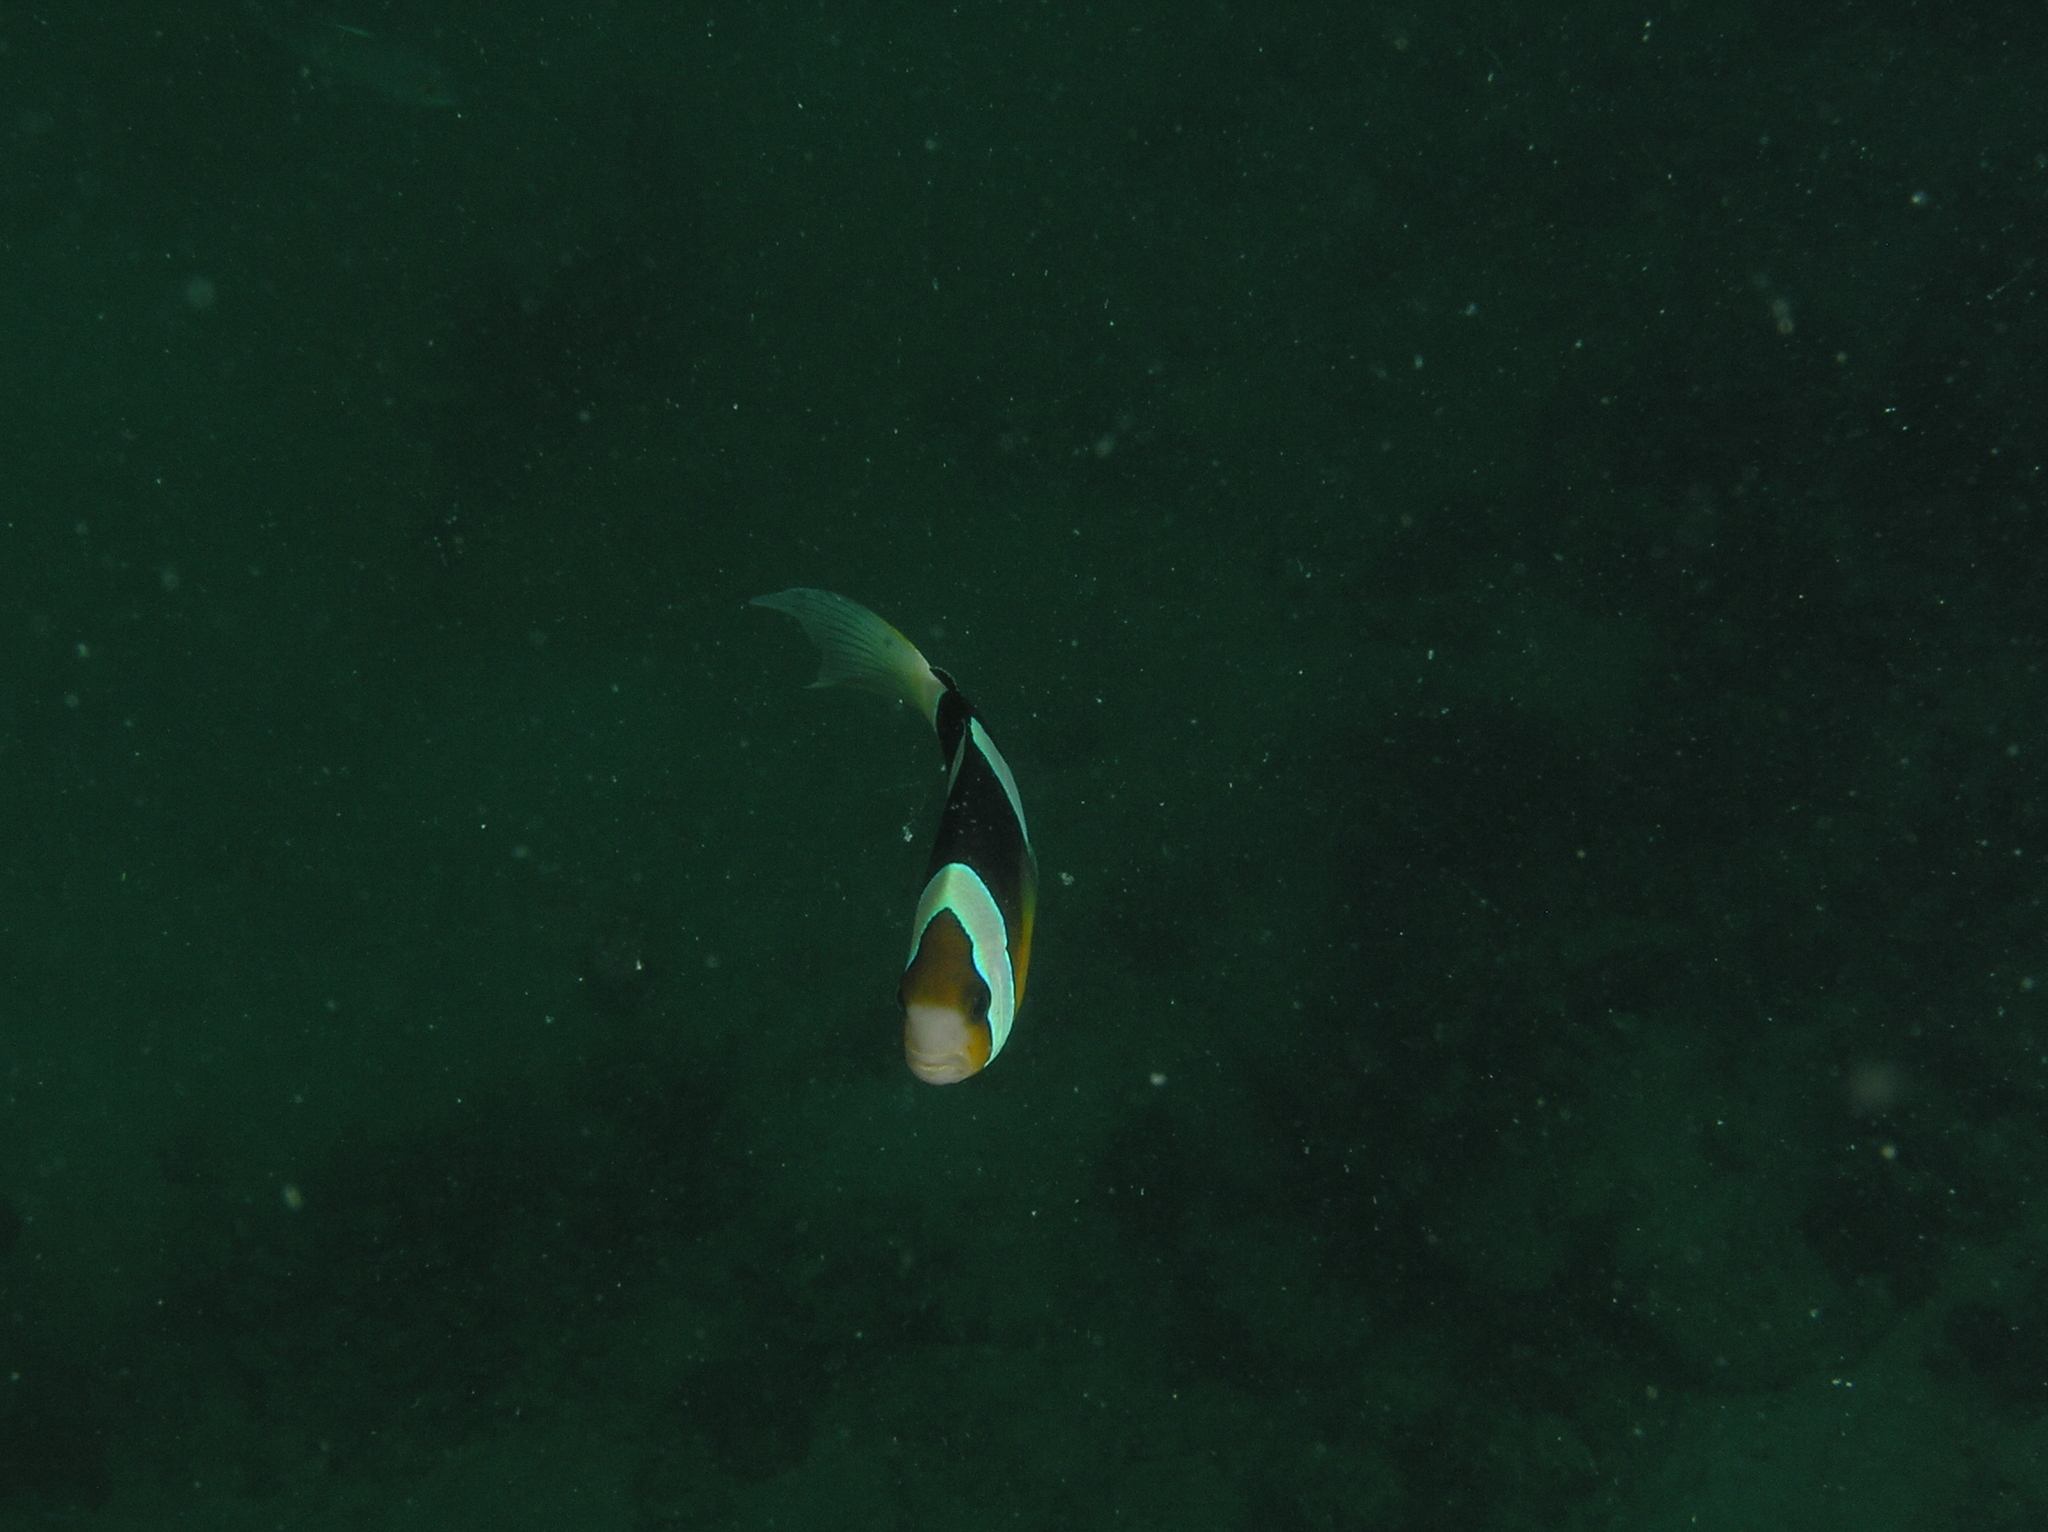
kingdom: Animalia
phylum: Chordata
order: Perciformes
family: Pomacentridae
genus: Amphiprion
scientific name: Amphiprion clarkii
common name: Clark's anemonefish
